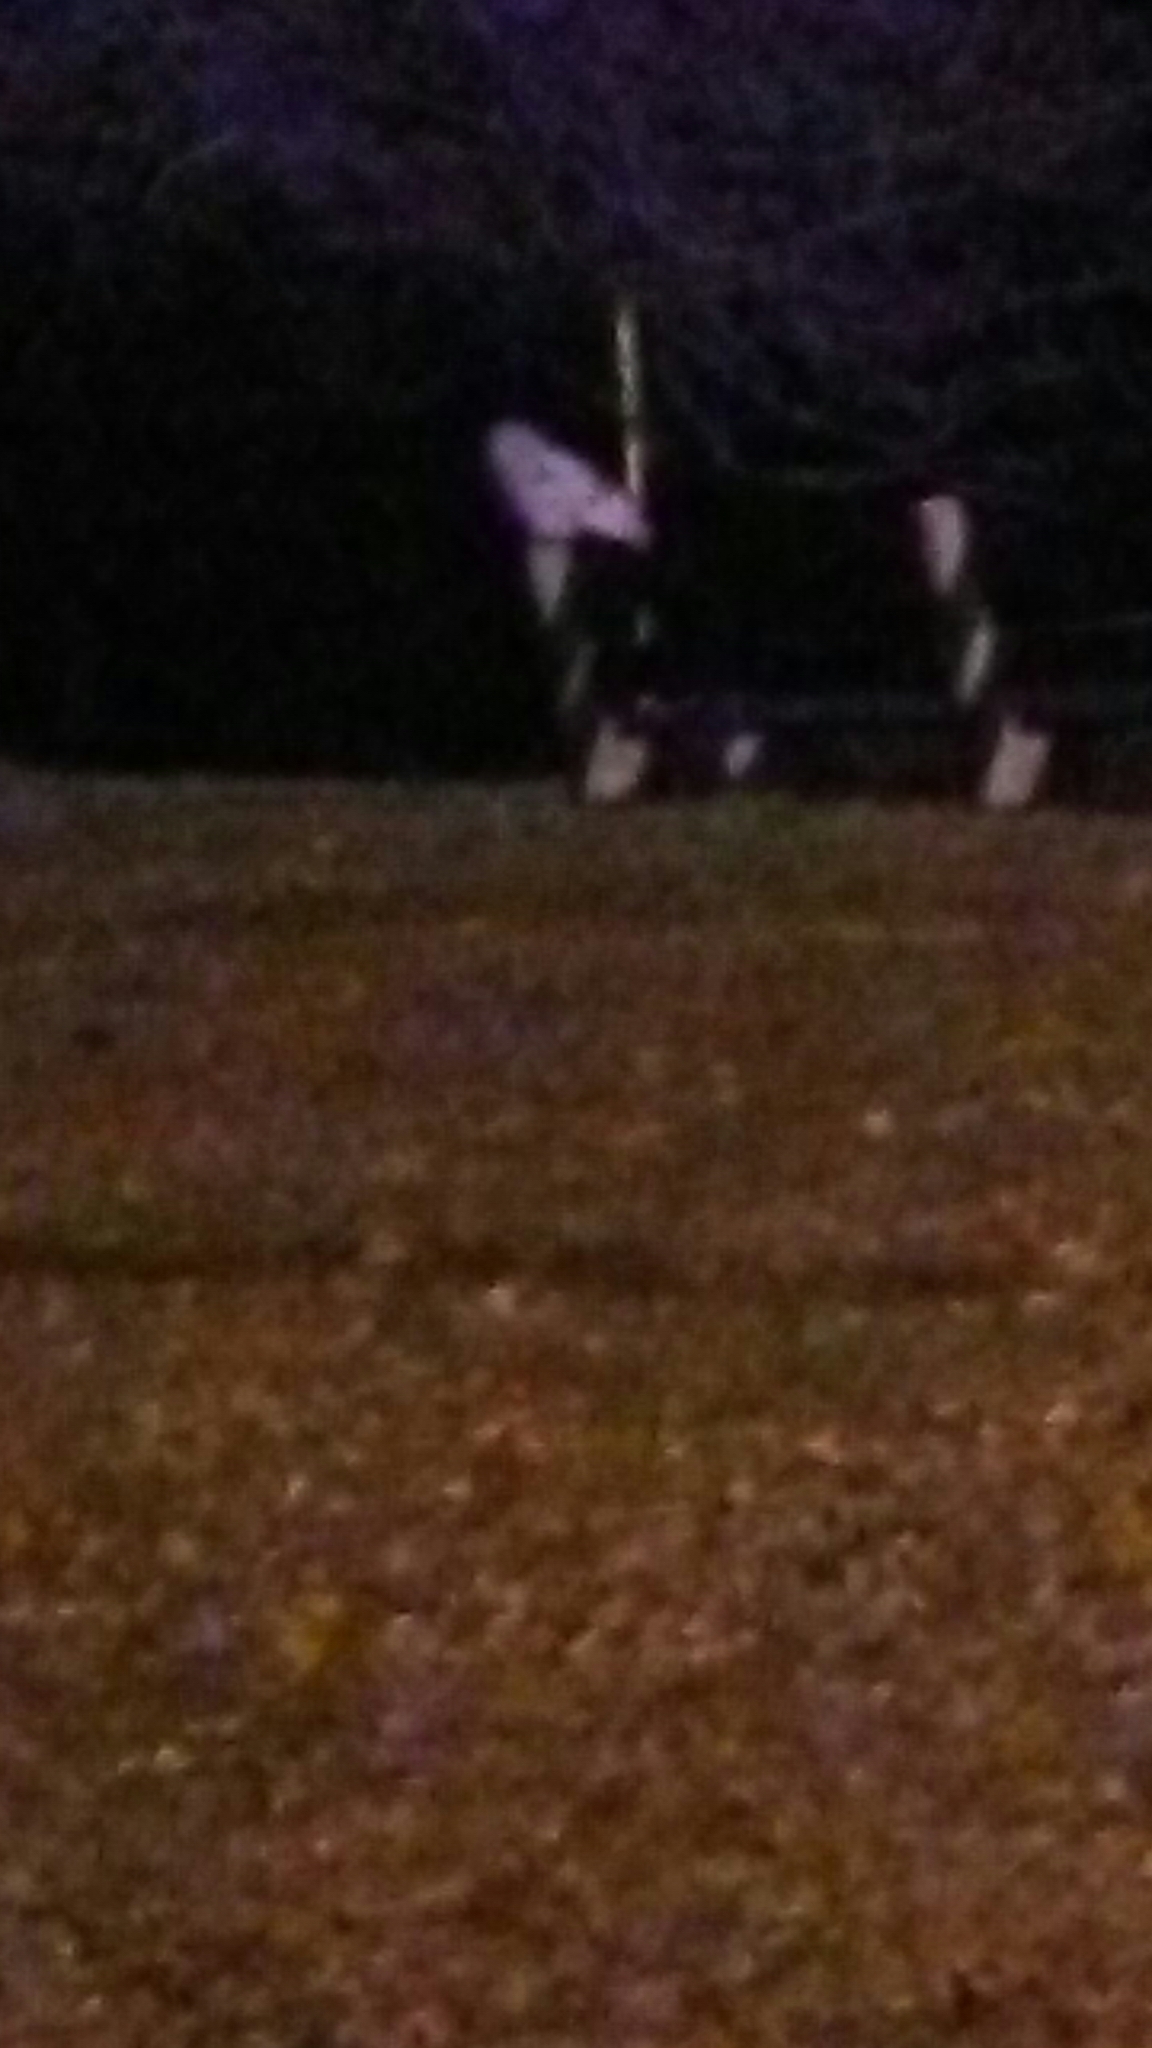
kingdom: Animalia
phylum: Chordata
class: Aves
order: Strigiformes
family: Strigidae
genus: Bubo
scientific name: Bubo scandiacus
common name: Snowy owl
